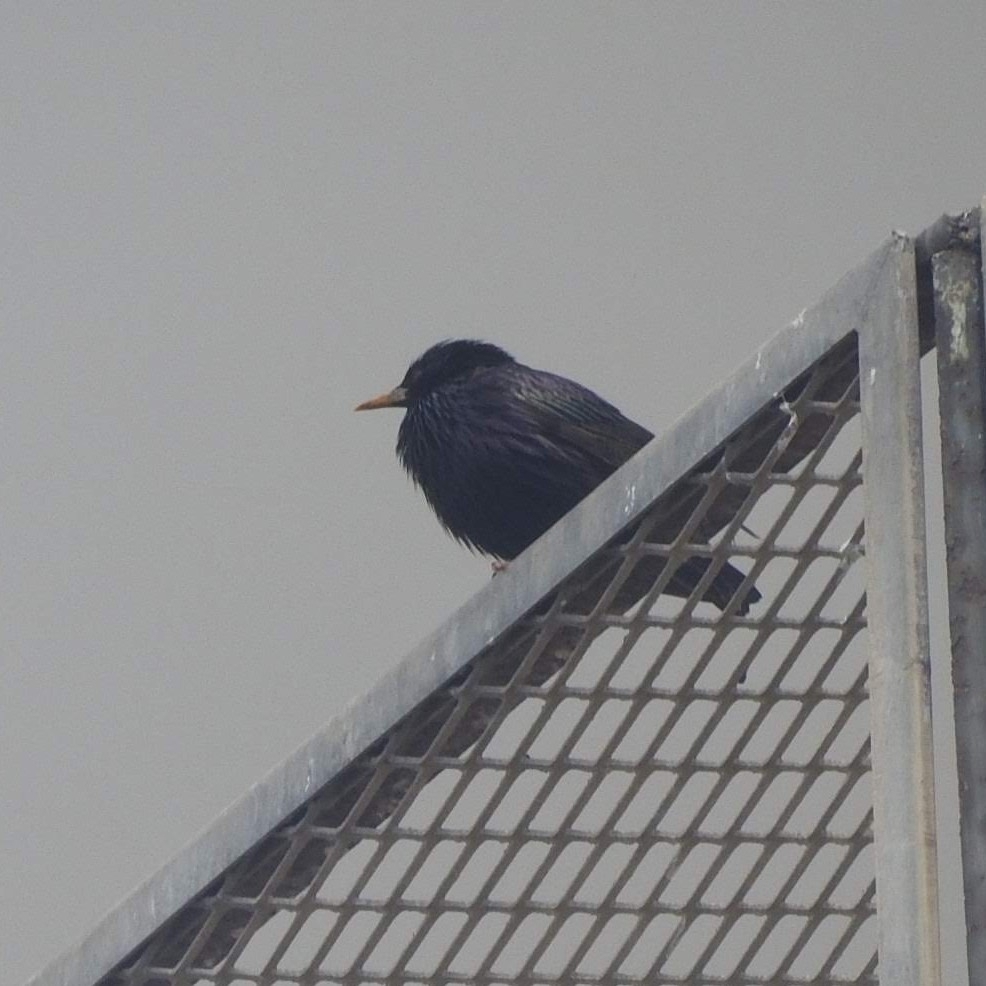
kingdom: Animalia
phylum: Chordata
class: Aves
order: Passeriformes
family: Sturnidae
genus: Sturnus
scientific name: Sturnus unicolor
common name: Spotless starling
